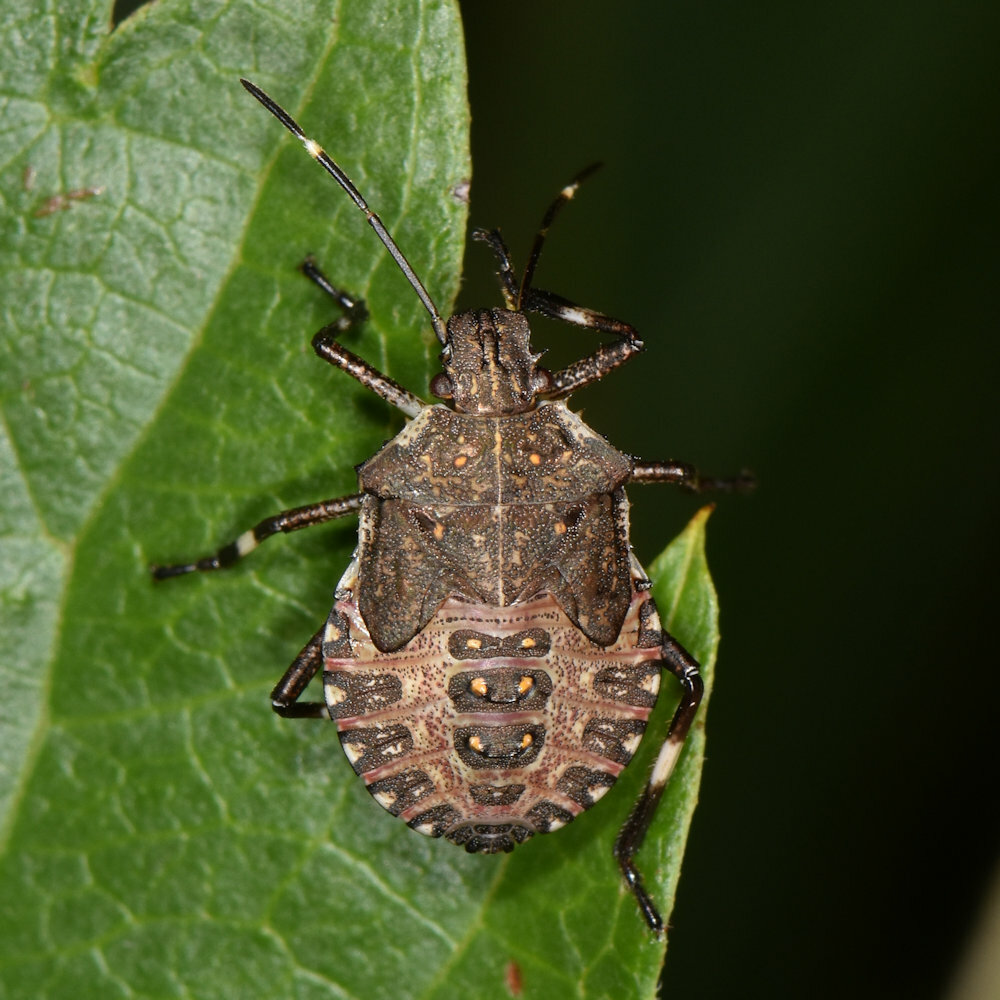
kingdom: Animalia
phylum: Arthropoda
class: Insecta
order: Hemiptera
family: Pentatomidae
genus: Halyomorpha
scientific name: Halyomorpha halys
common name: Brown marmorated stink bug
